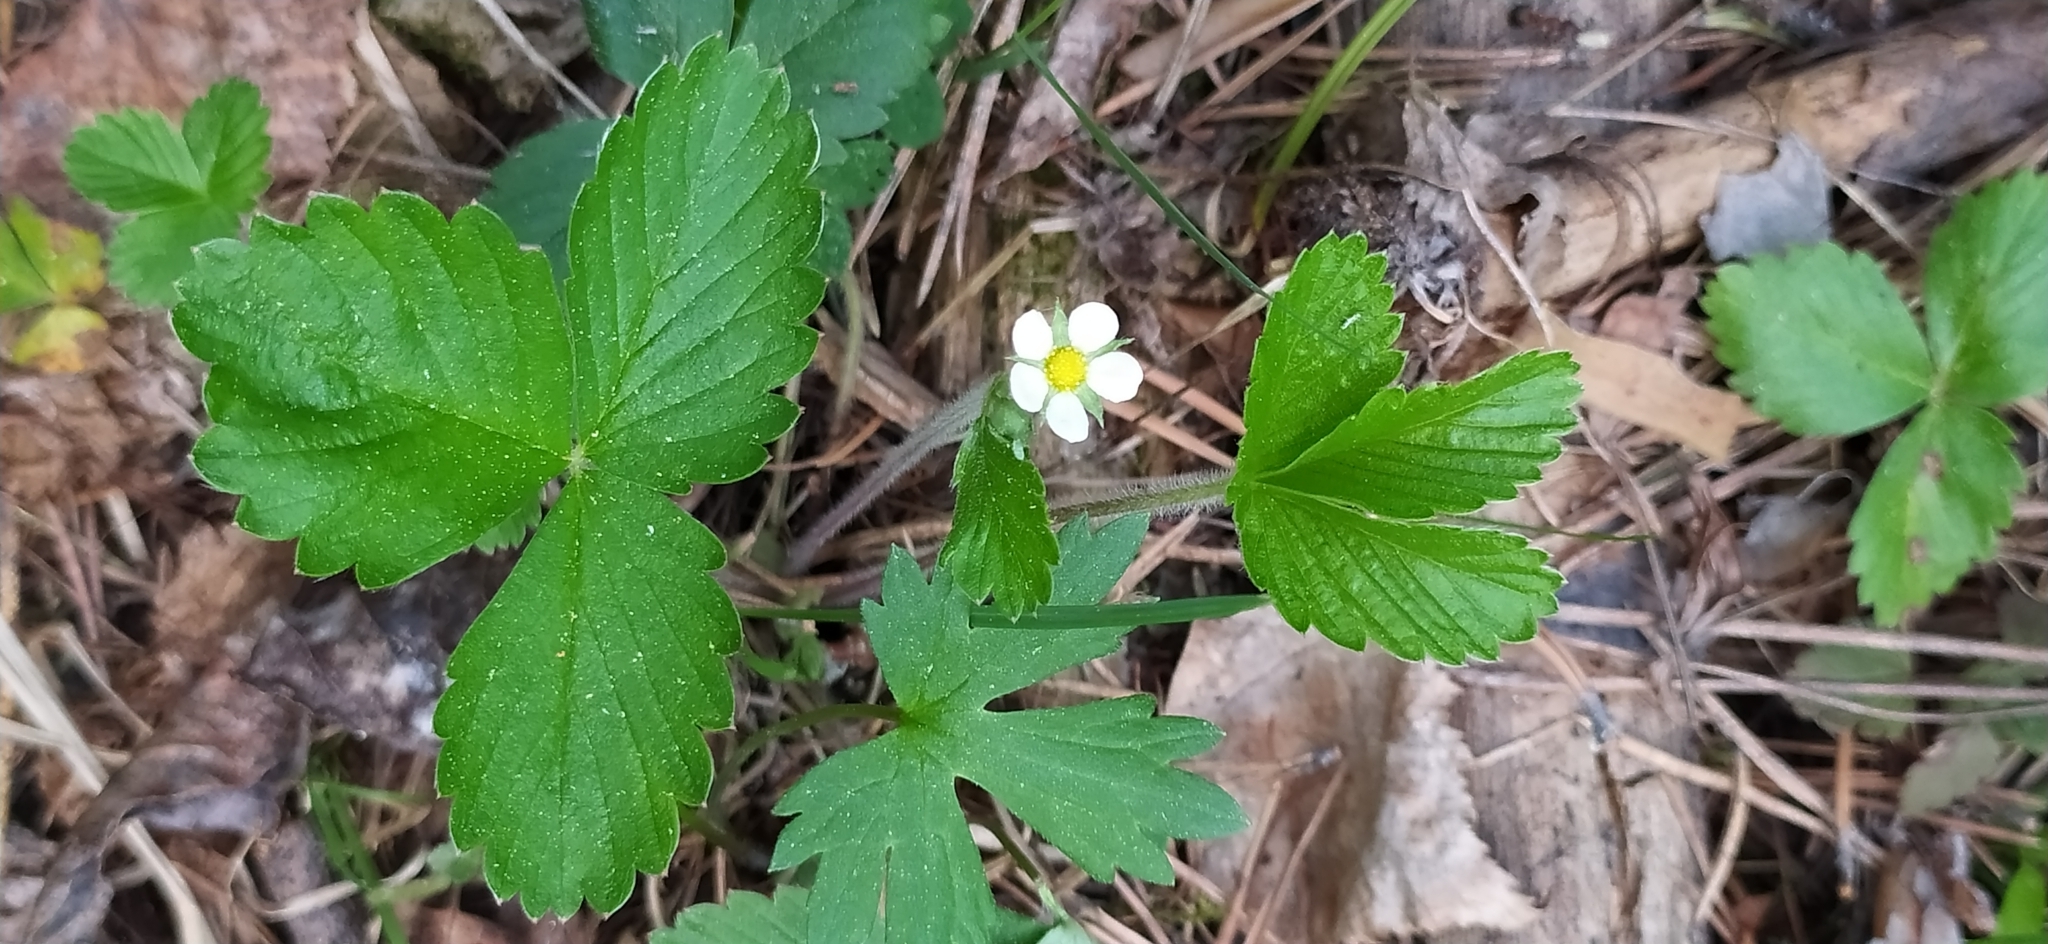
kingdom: Plantae
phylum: Tracheophyta
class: Magnoliopsida
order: Rosales
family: Rosaceae
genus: Fragaria
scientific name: Fragaria vesca
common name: Wild strawberry
